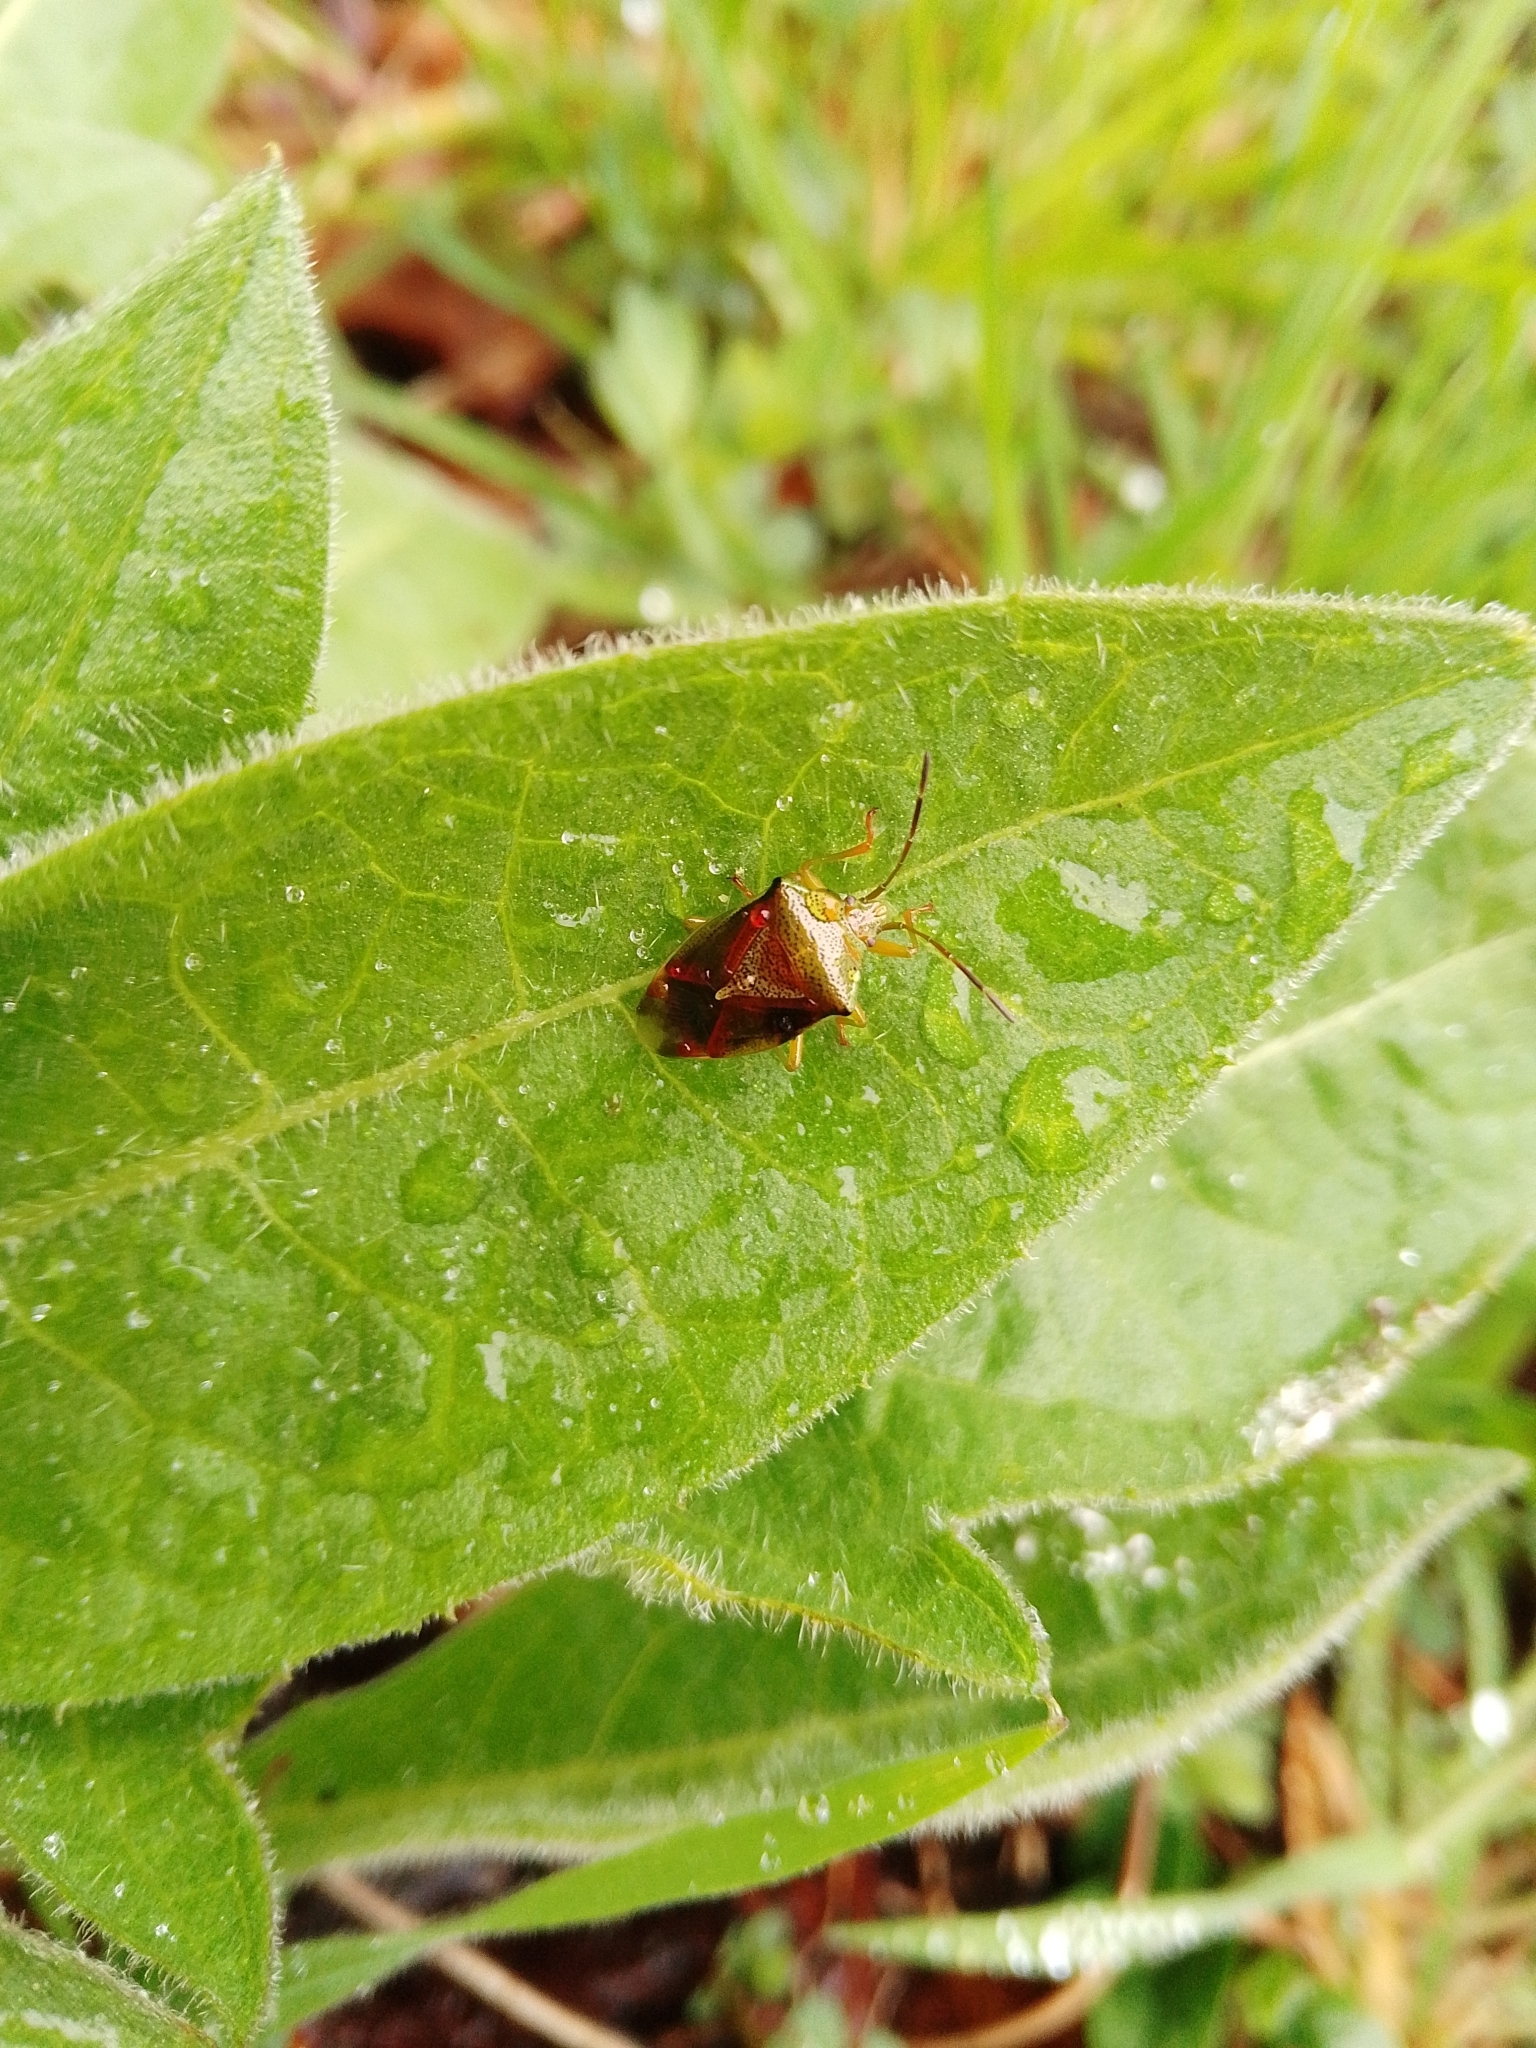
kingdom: Animalia
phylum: Arthropoda
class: Insecta
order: Hemiptera
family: Acanthosomatidae
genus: Elasmostethus
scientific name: Elasmostethus interstinctus
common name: Birch shieldbug
